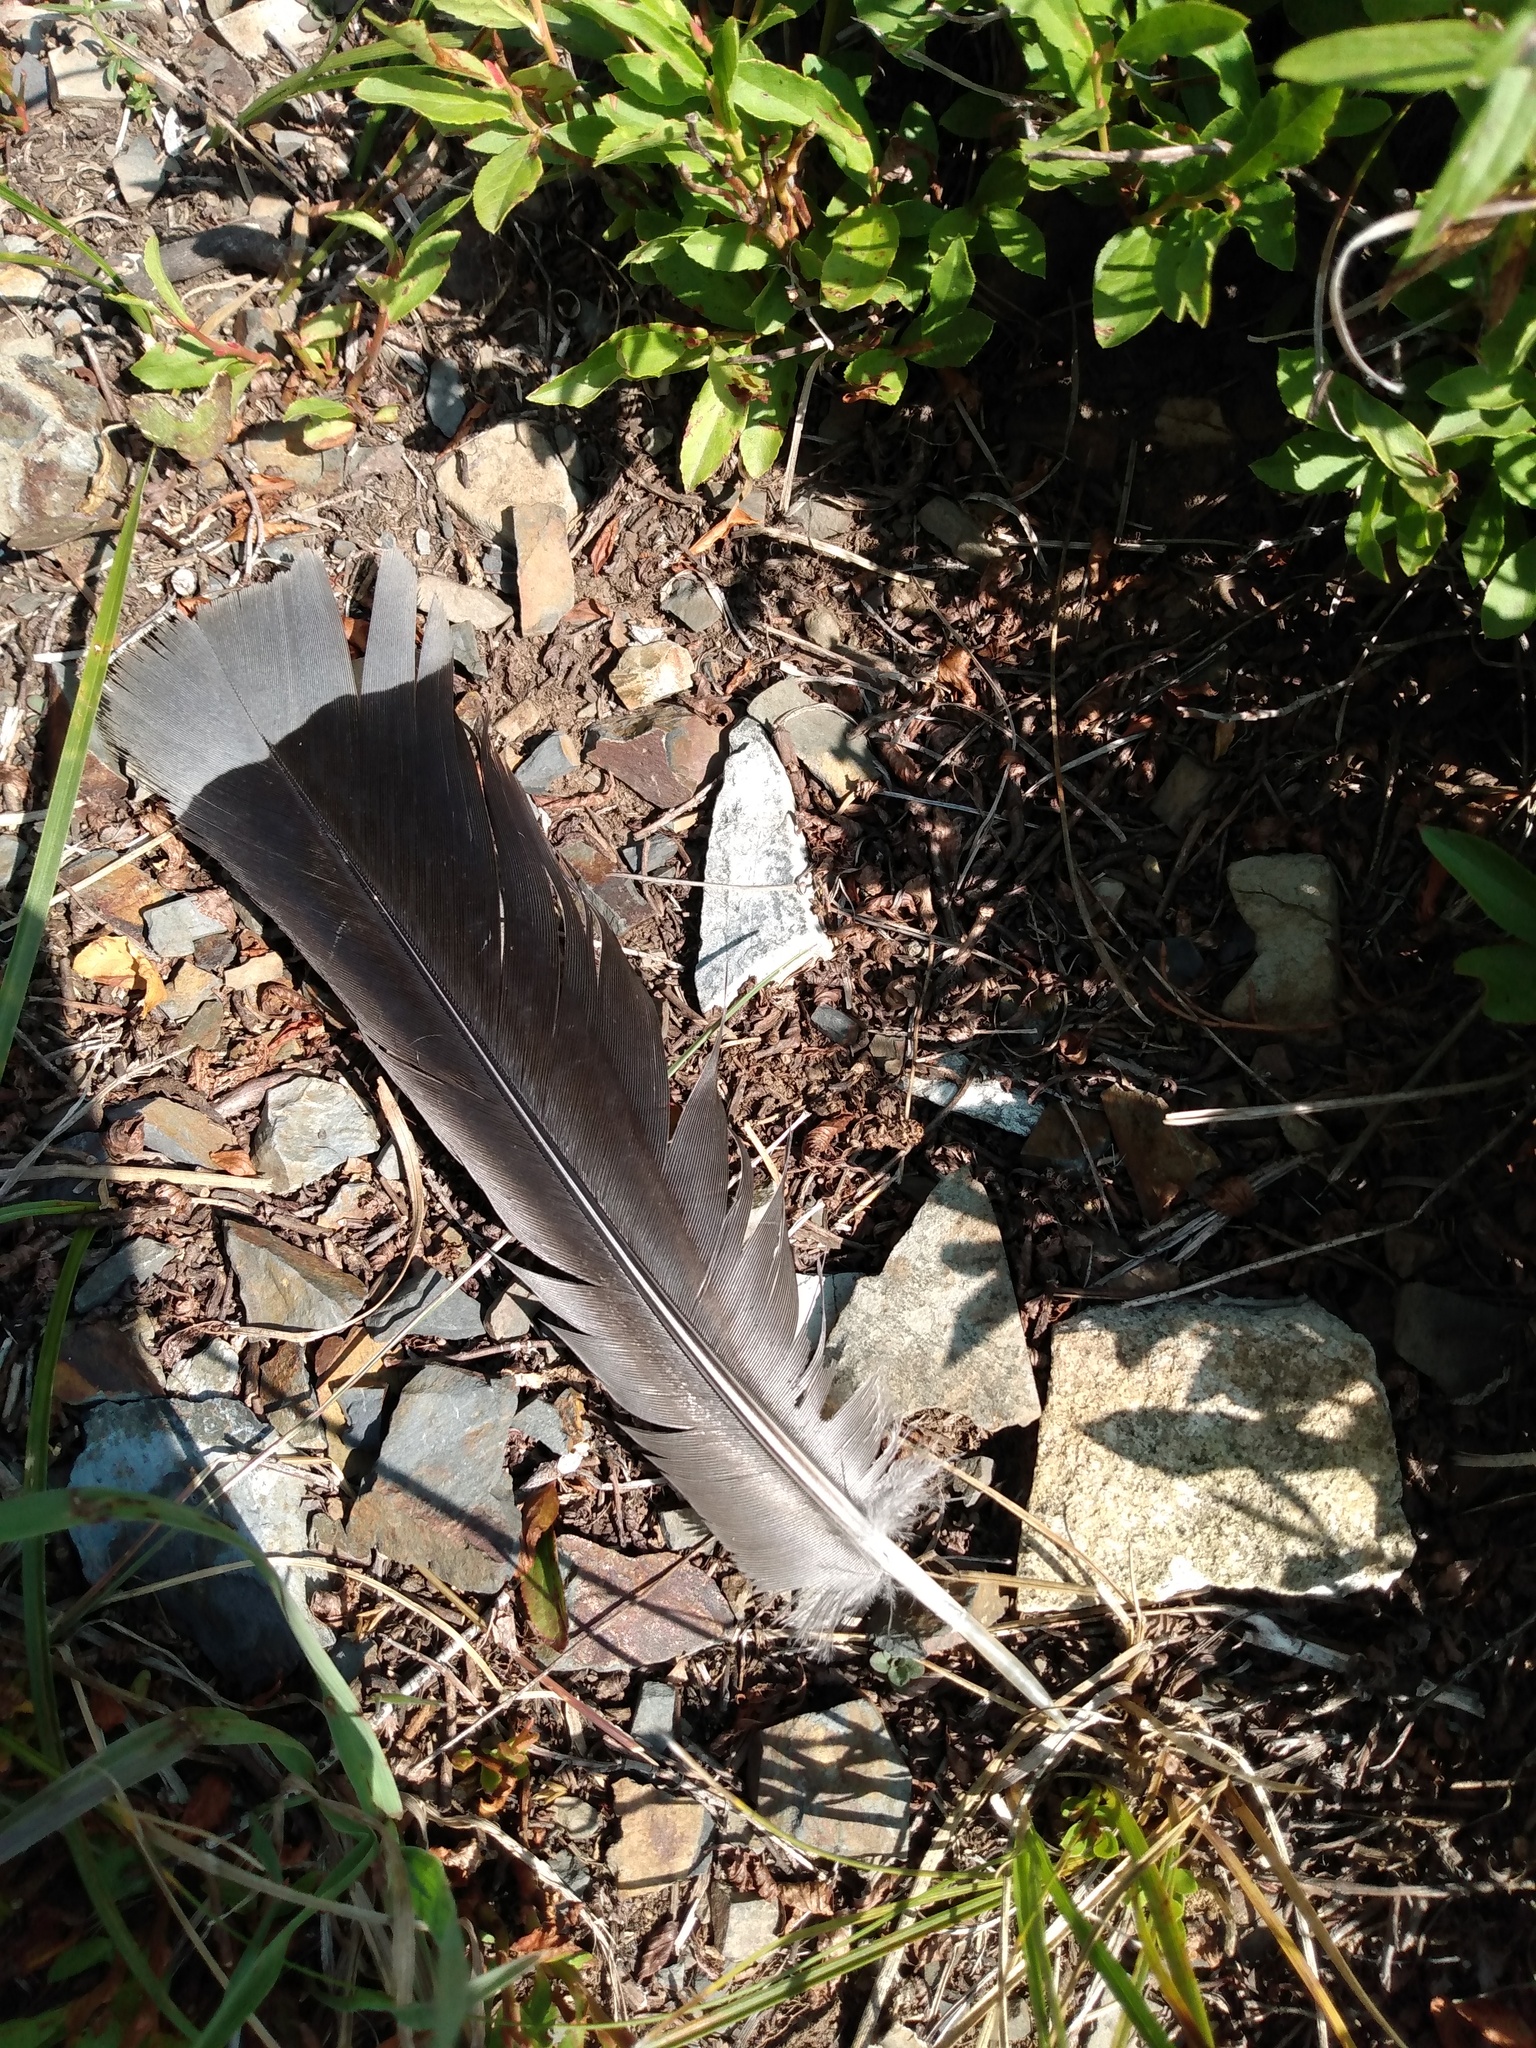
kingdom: Animalia
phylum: Chordata
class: Aves
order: Galliformes
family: Phasianidae
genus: Dendragapus
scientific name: Dendragapus obscurus
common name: Dusky grouse
